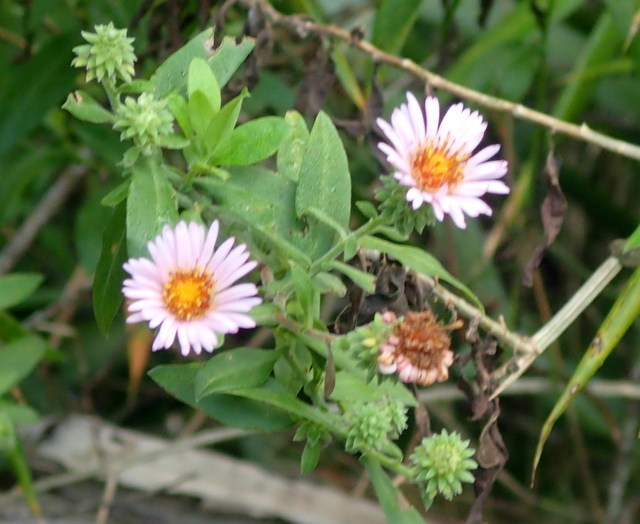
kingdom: Plantae
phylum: Tracheophyta
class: Magnoliopsida
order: Asterales
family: Asteraceae
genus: Ampelaster
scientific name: Ampelaster carolinianus
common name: Climbing aster
